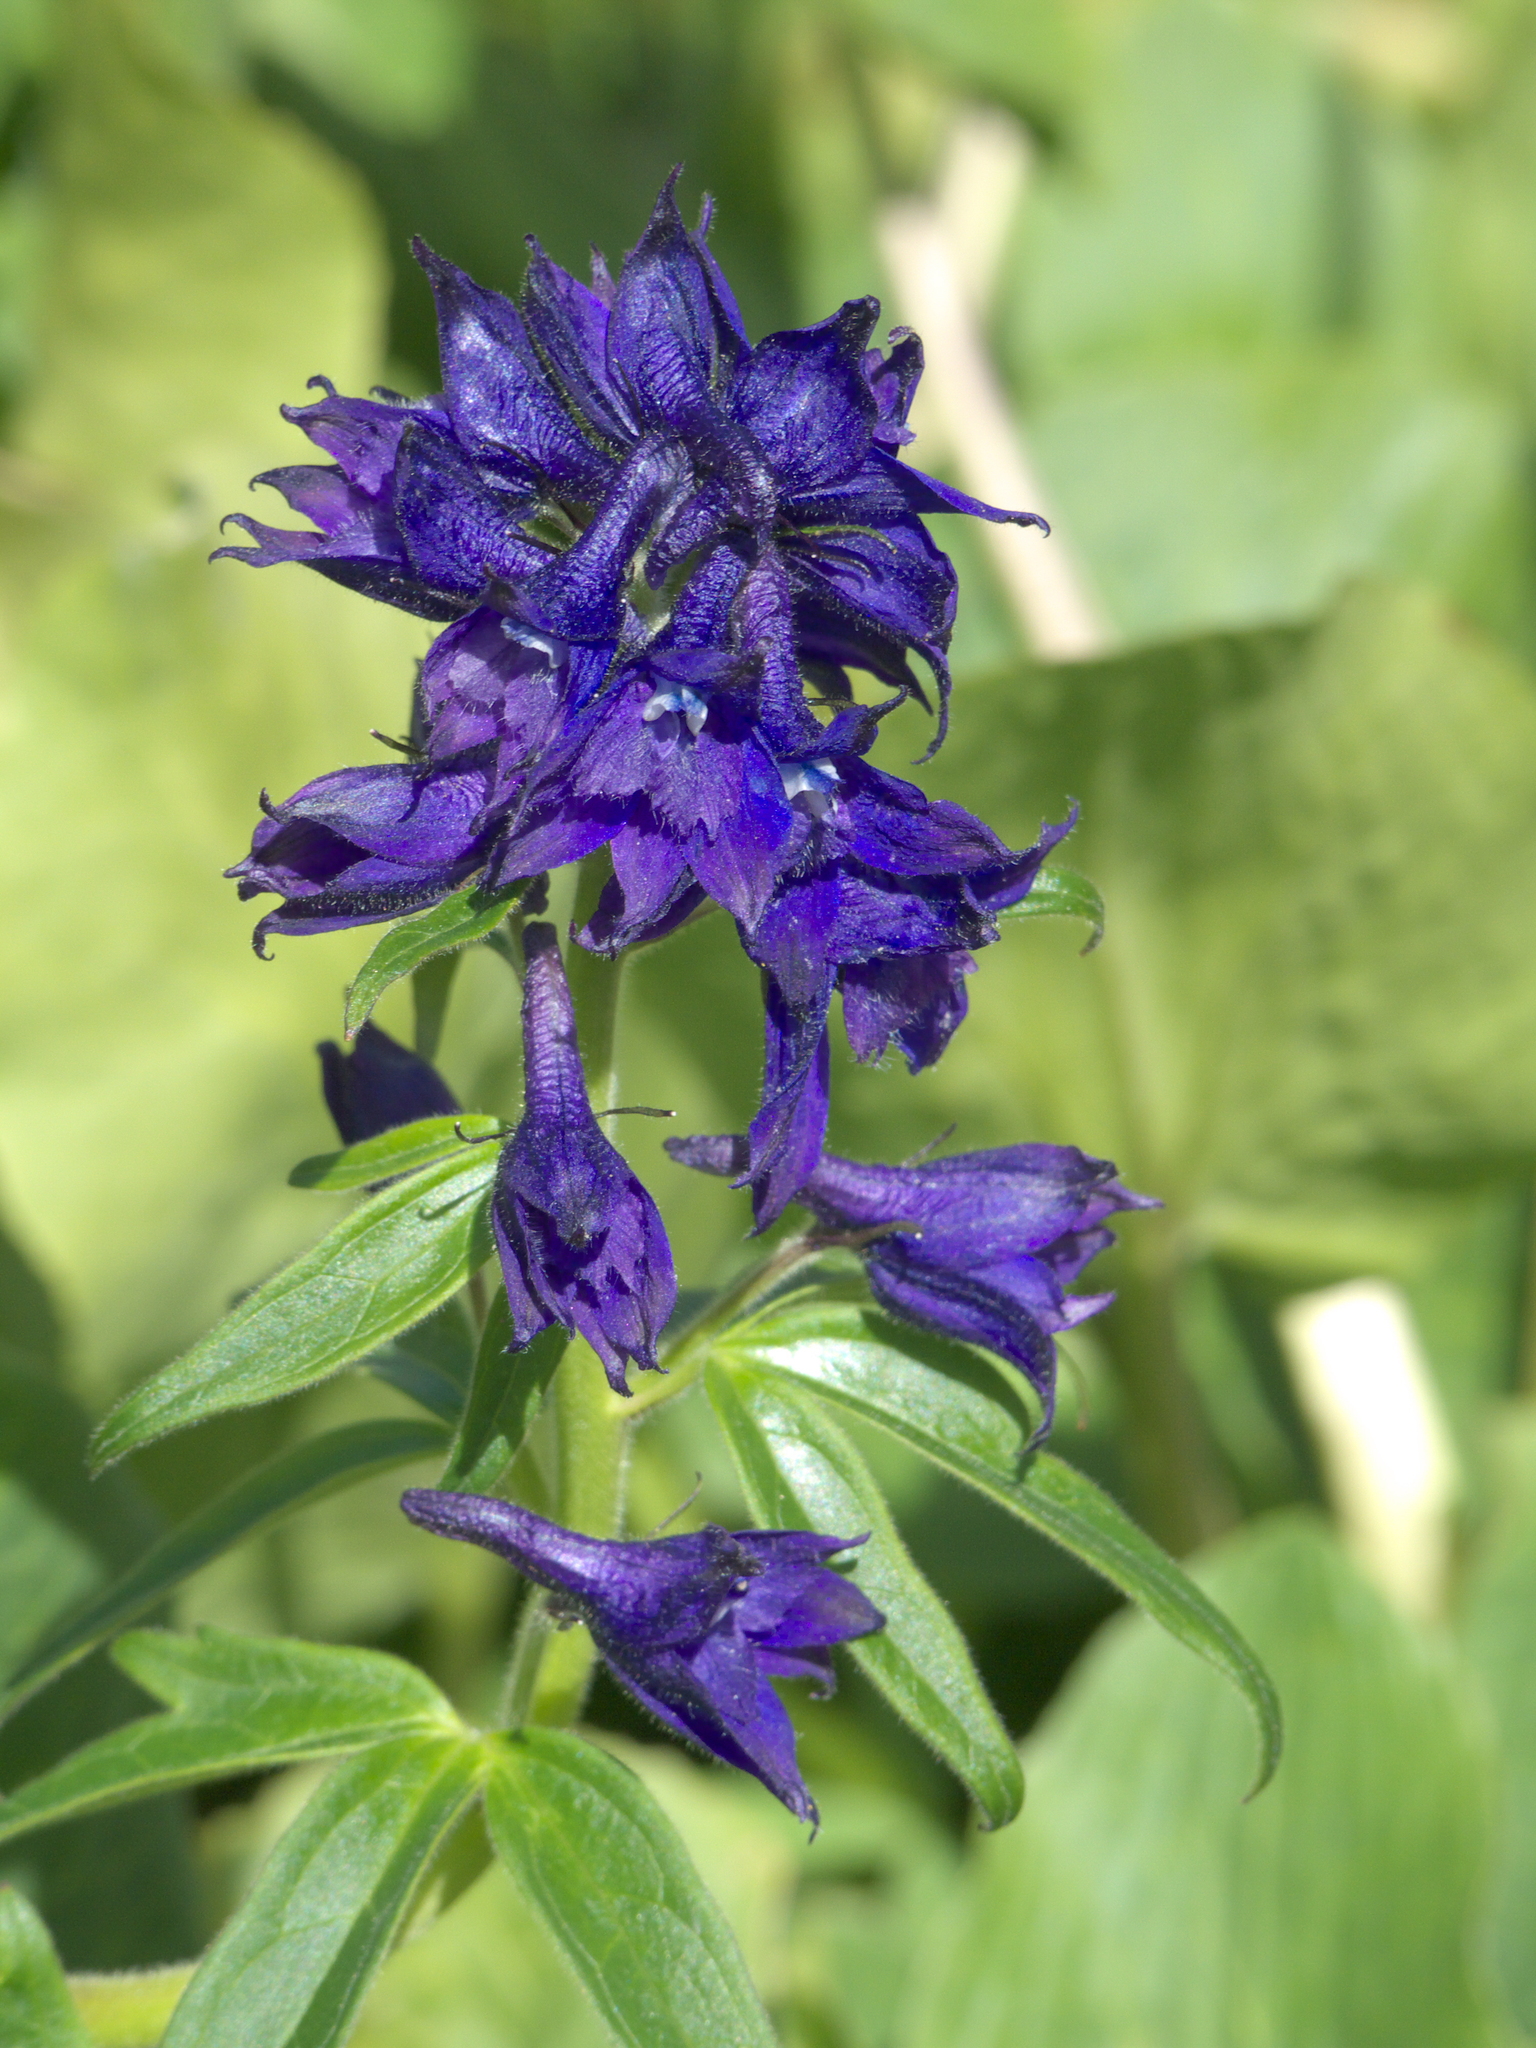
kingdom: Plantae
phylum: Tracheophyta
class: Magnoliopsida
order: Ranunculales
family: Ranunculaceae
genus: Delphinium
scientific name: Delphinium barbeyi
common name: Subalpine larkspur
